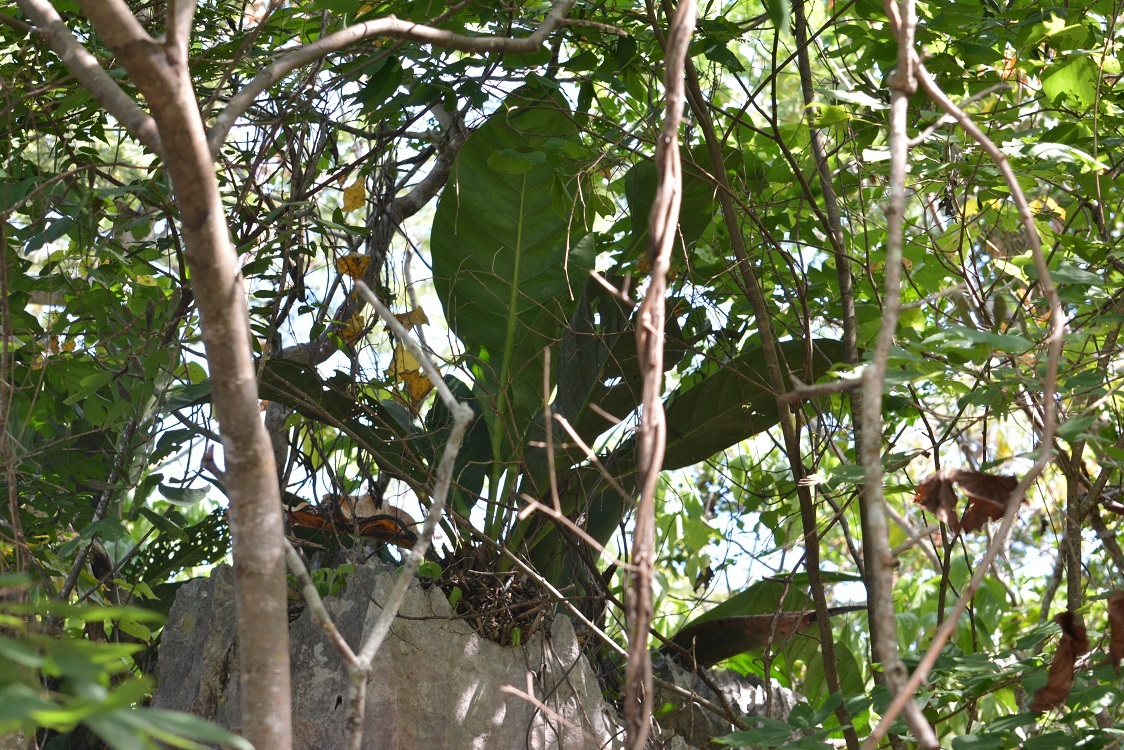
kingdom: Plantae
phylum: Tracheophyta
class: Liliopsida
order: Alismatales
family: Araceae
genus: Anthurium
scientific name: Anthurium schlechtendalii
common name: Laceleaf
